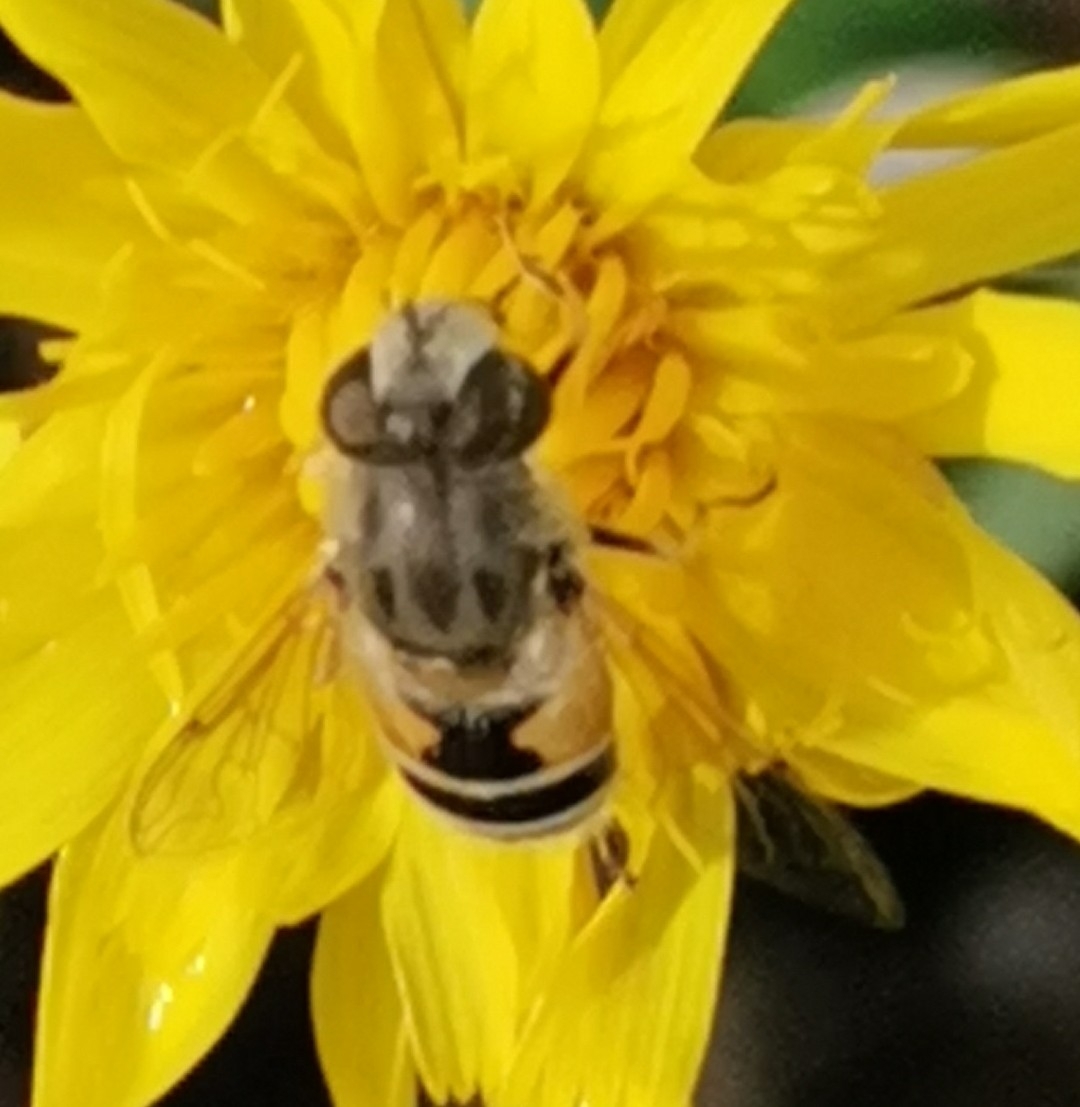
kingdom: Animalia
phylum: Arthropoda
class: Insecta
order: Diptera
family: Syrphidae
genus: Eristalis
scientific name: Eristalis arbustorum
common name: Hover fly
